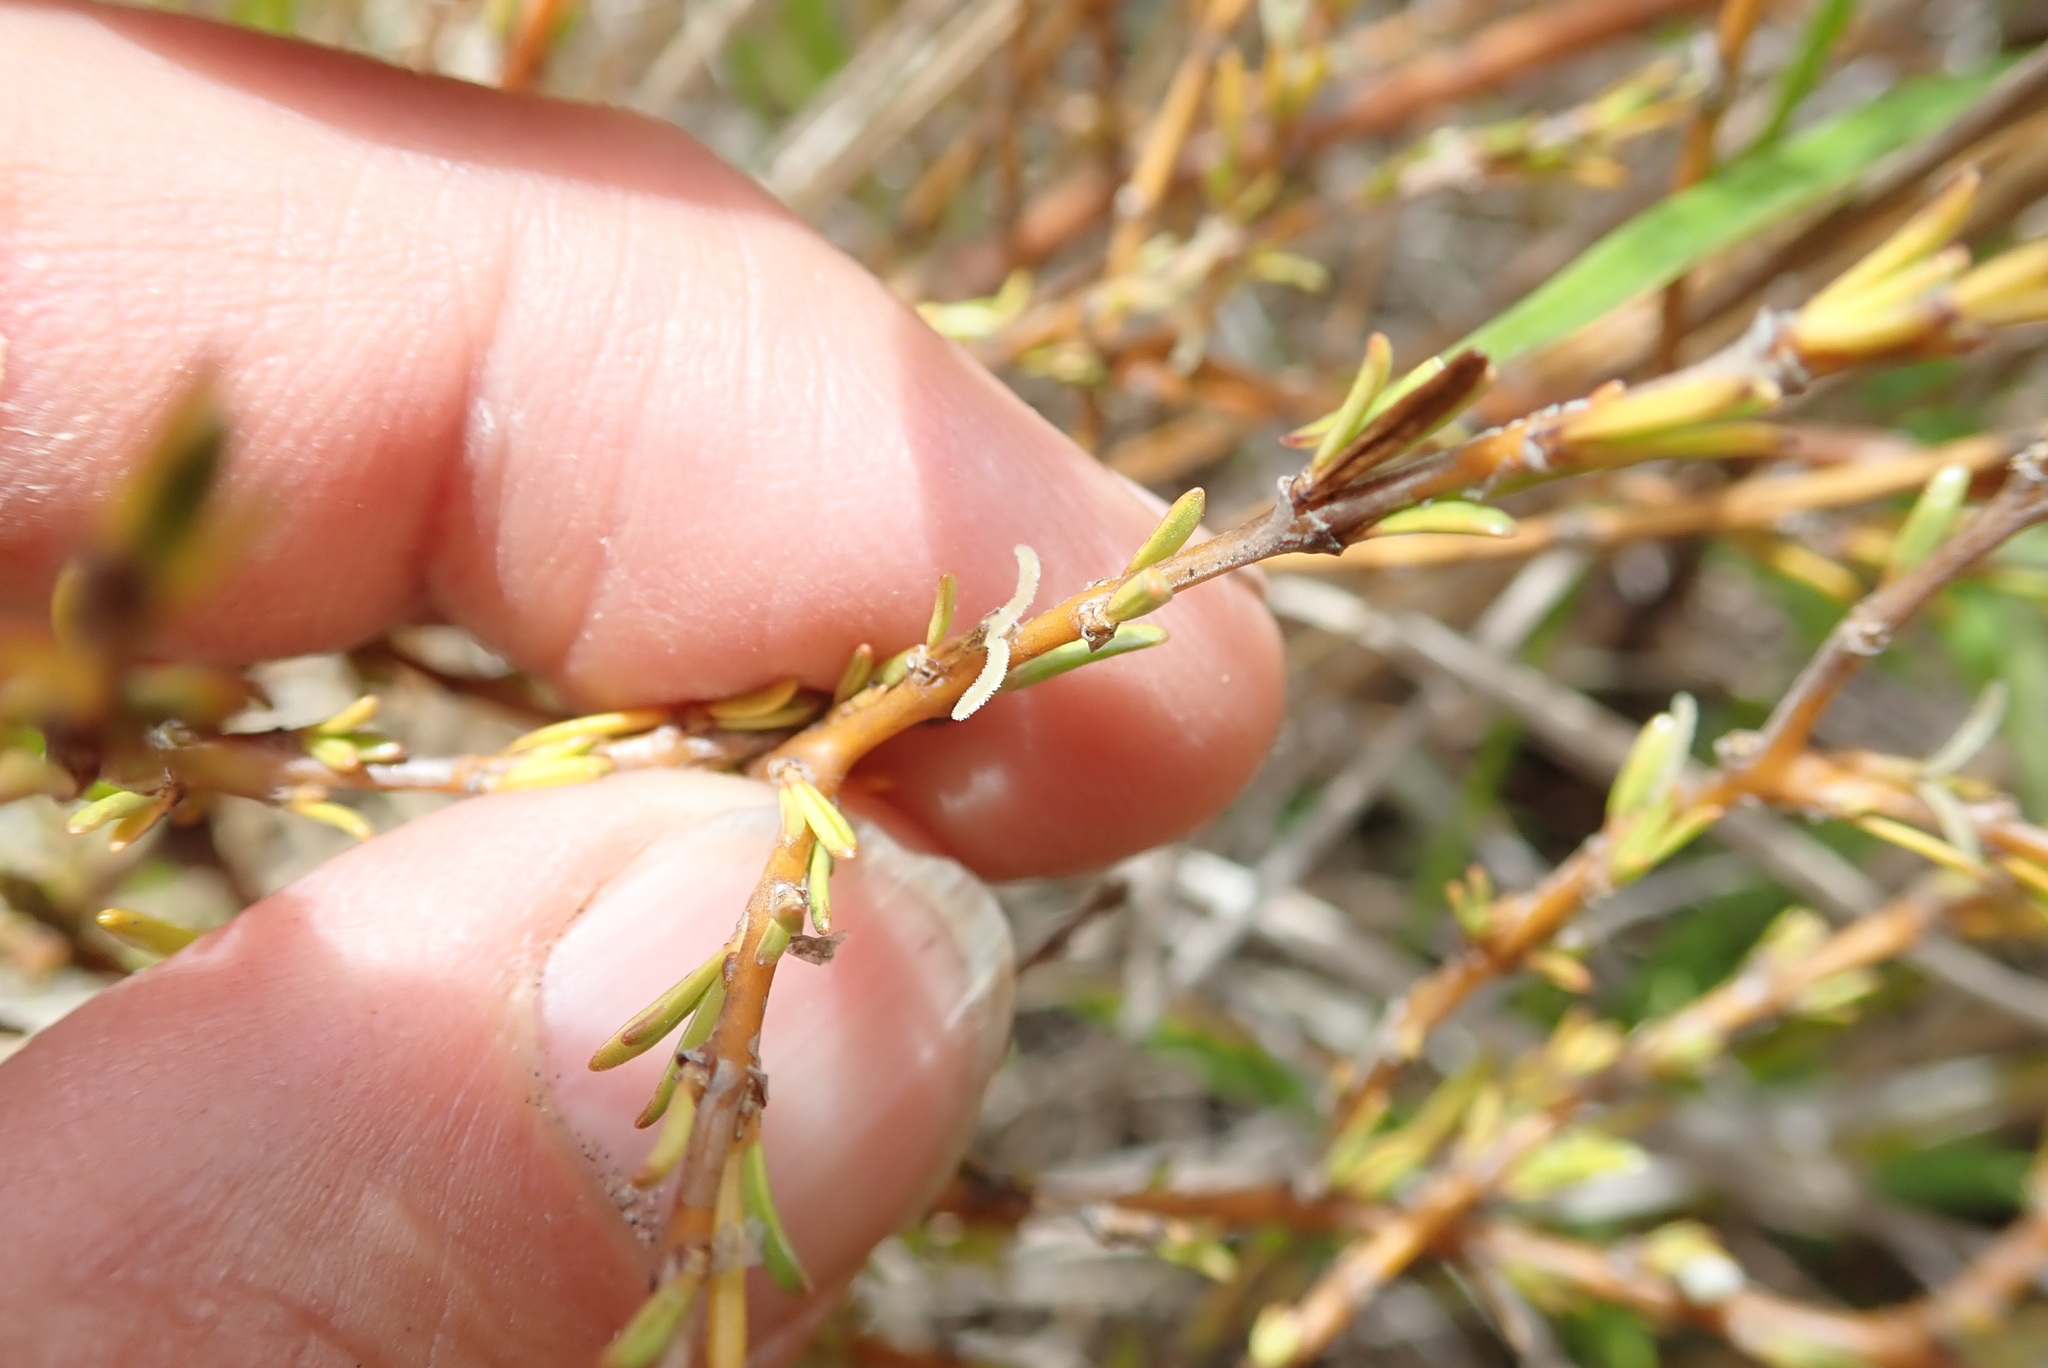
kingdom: Plantae
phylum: Tracheophyta
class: Magnoliopsida
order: Gentianales
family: Rubiaceae
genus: Coprosma
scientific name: Coprosma acerosa
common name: Sand coprosma
